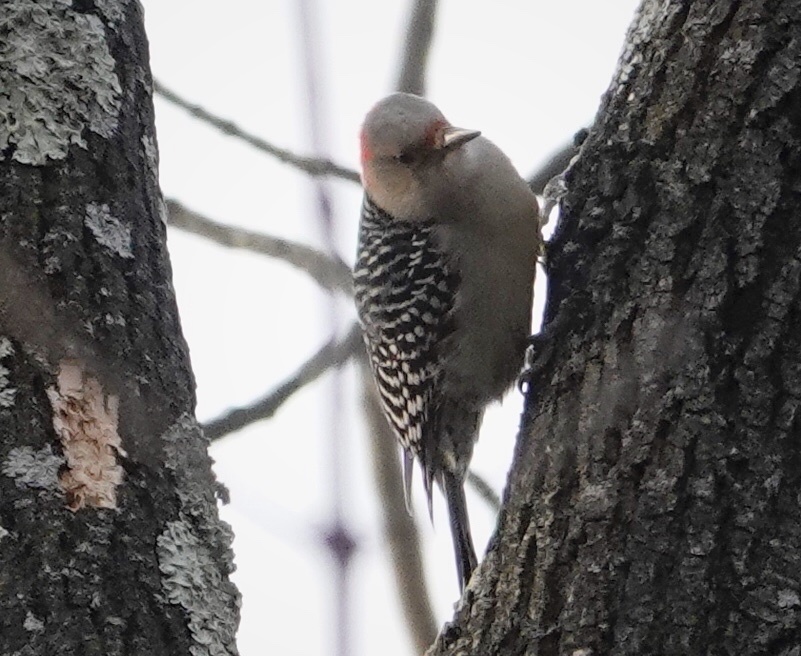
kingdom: Animalia
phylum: Chordata
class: Aves
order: Piciformes
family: Picidae
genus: Melanerpes
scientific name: Melanerpes carolinus
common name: Red-bellied woodpecker
